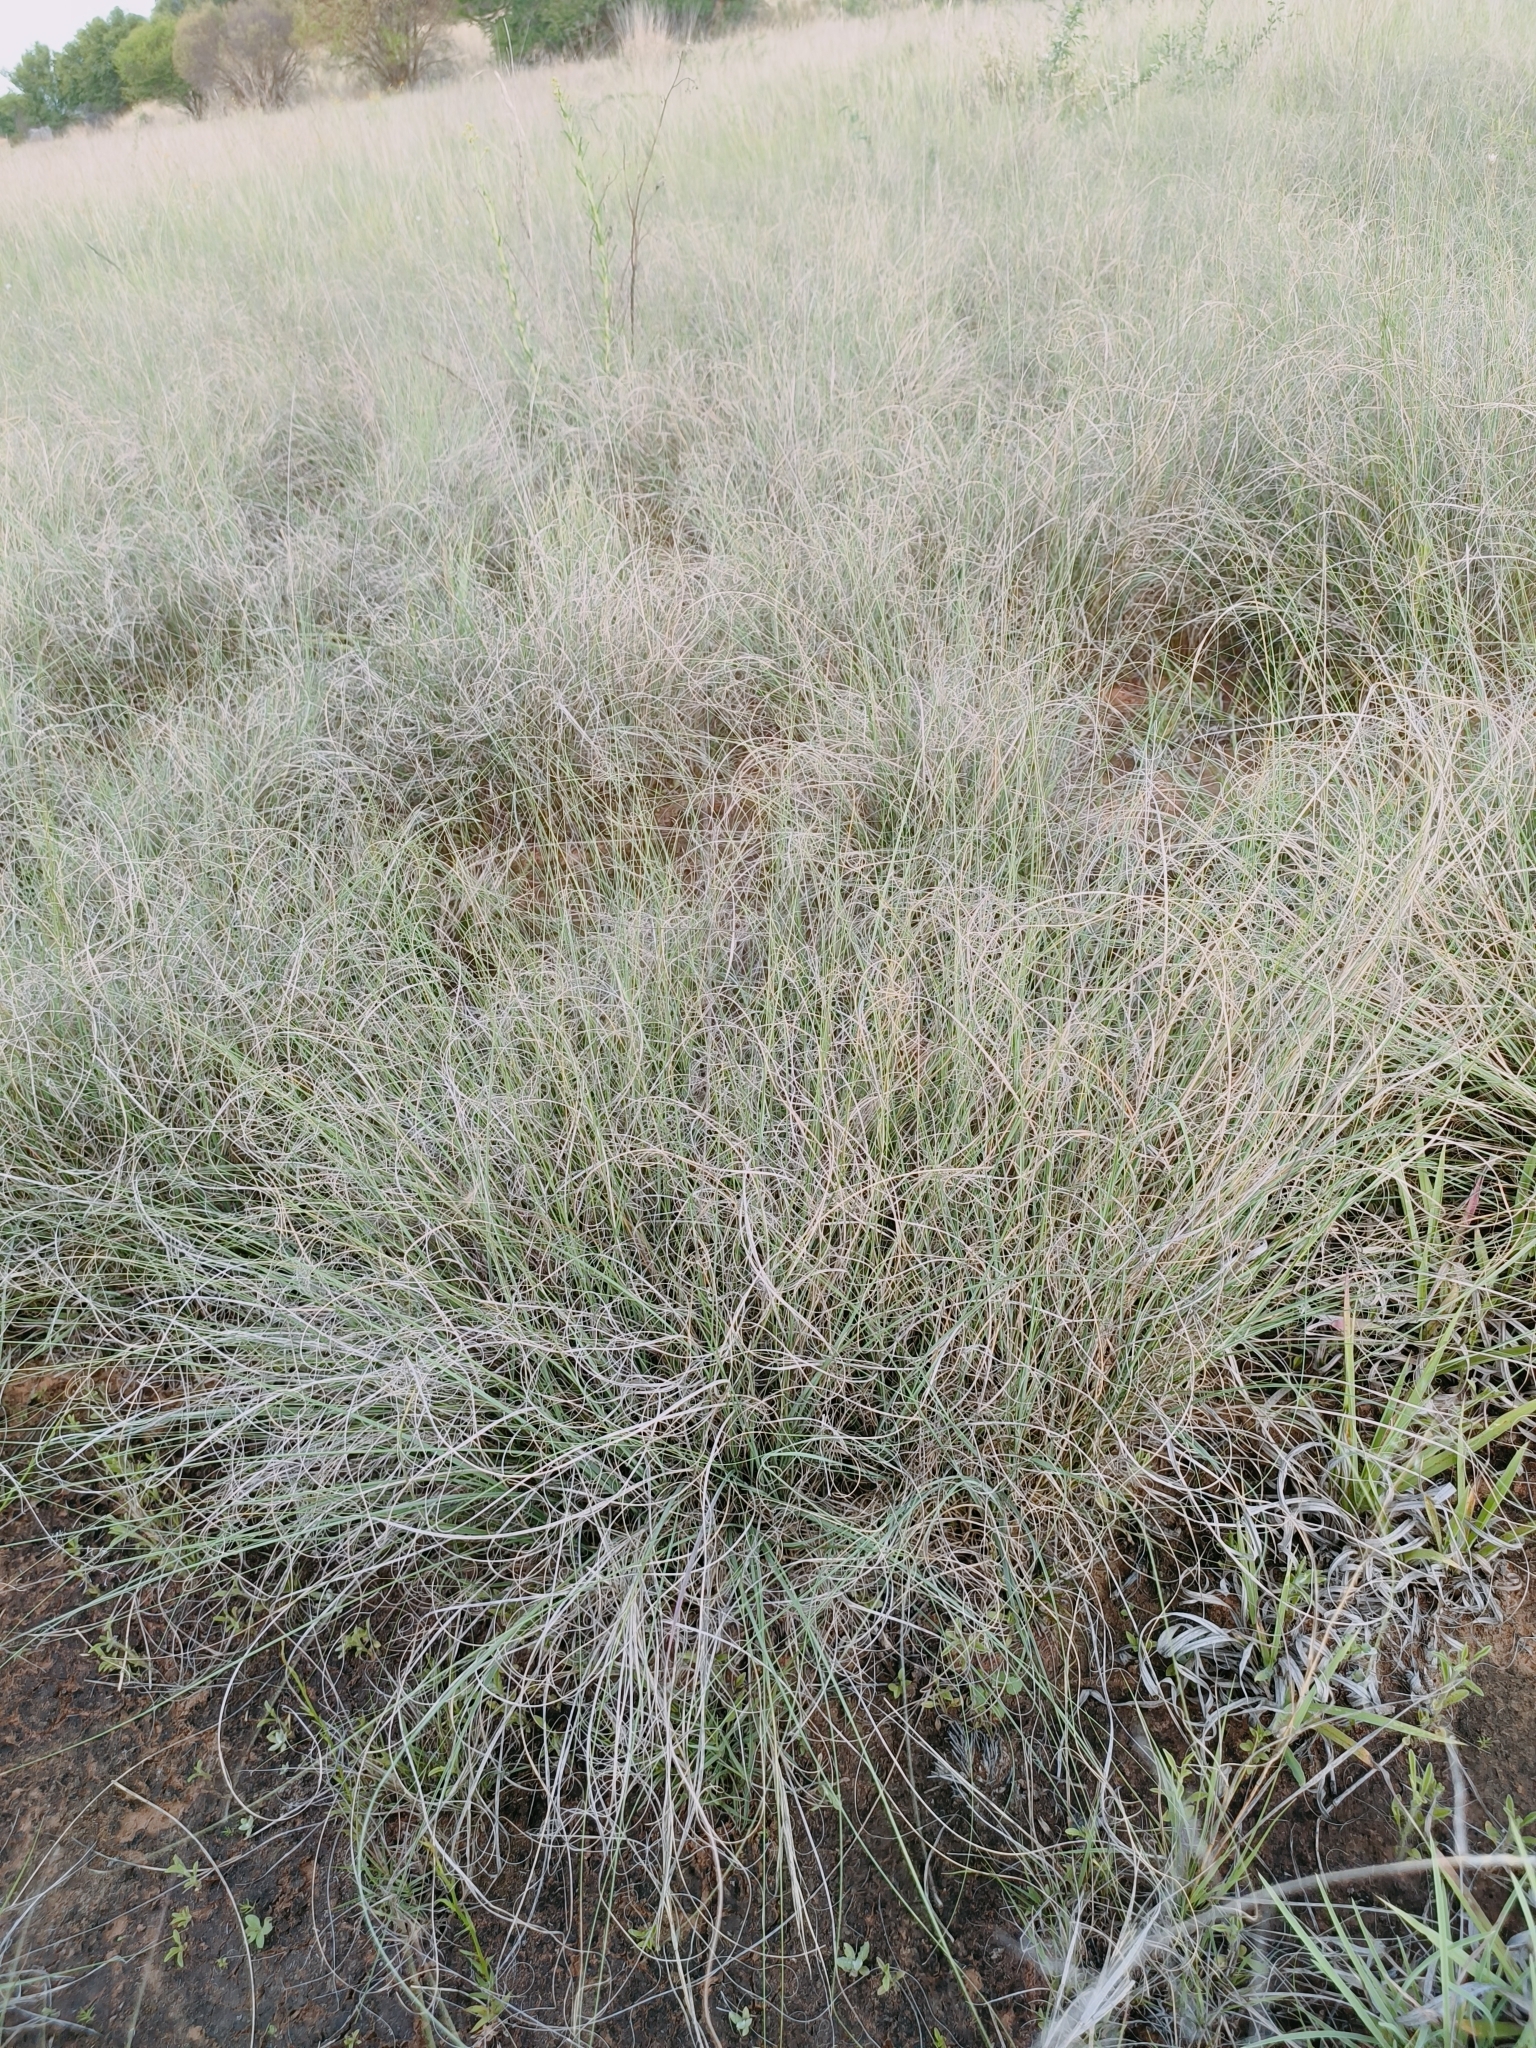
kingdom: Plantae
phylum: Tracheophyta
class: Liliopsida
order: Poales
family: Poaceae
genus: Eragrostis
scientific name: Eragrostis curvula
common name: African love-grass
